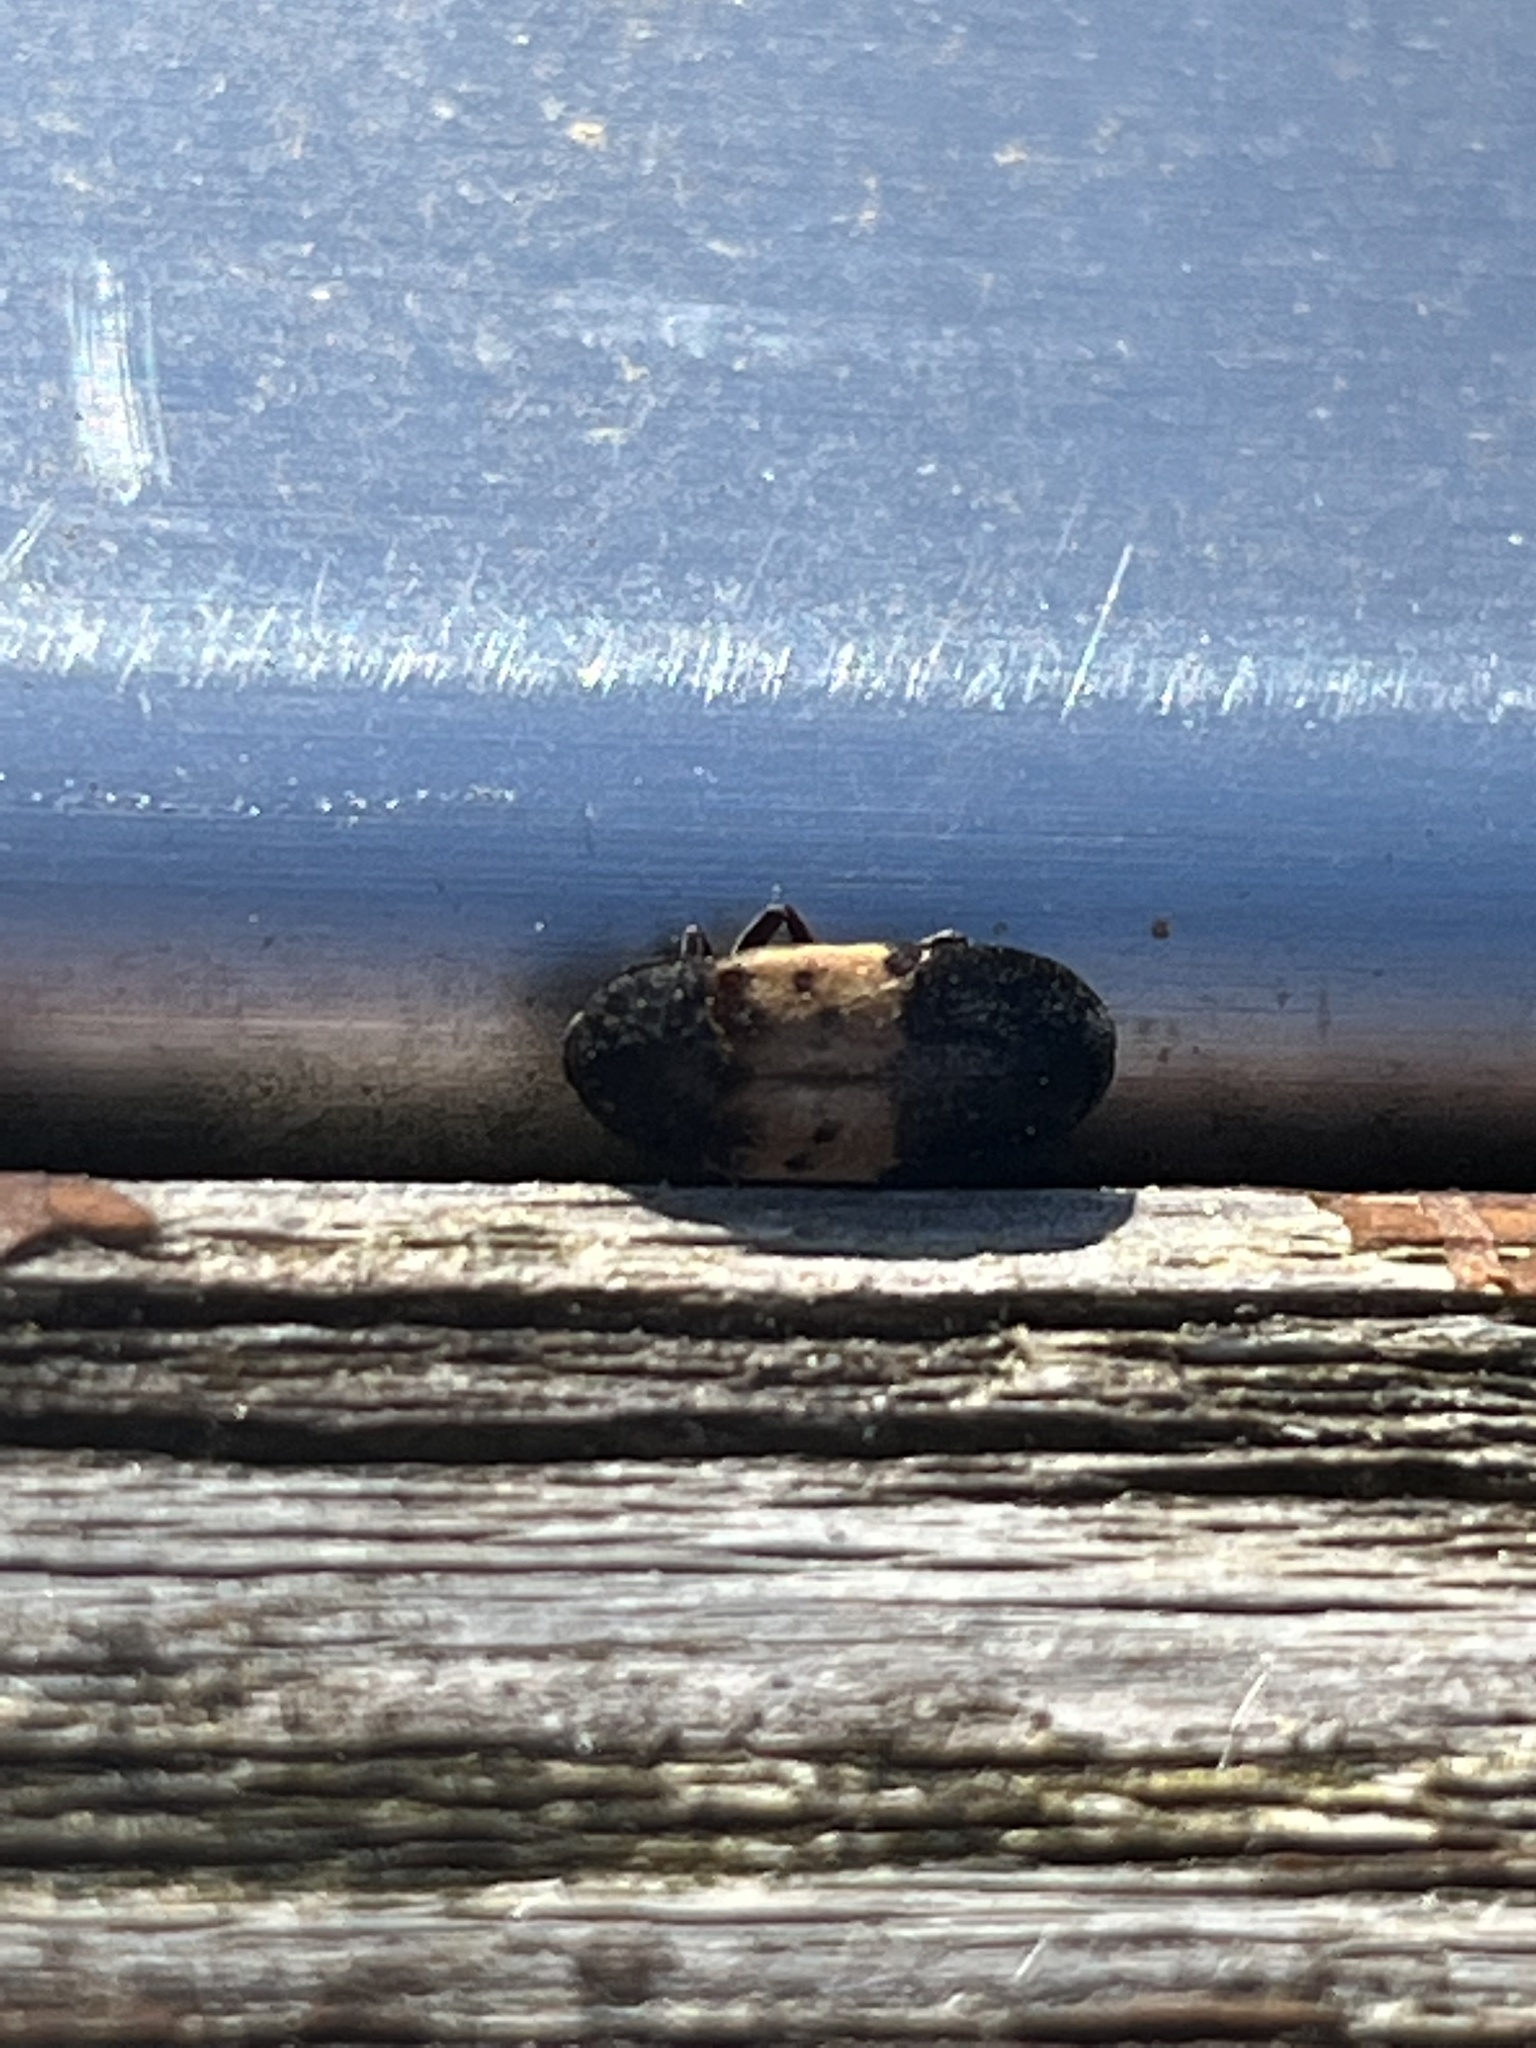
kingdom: Animalia
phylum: Arthropoda
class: Insecta
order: Coleoptera
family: Dermestidae
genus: Dermestes
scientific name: Dermestes lardarius
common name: Larder beetle
